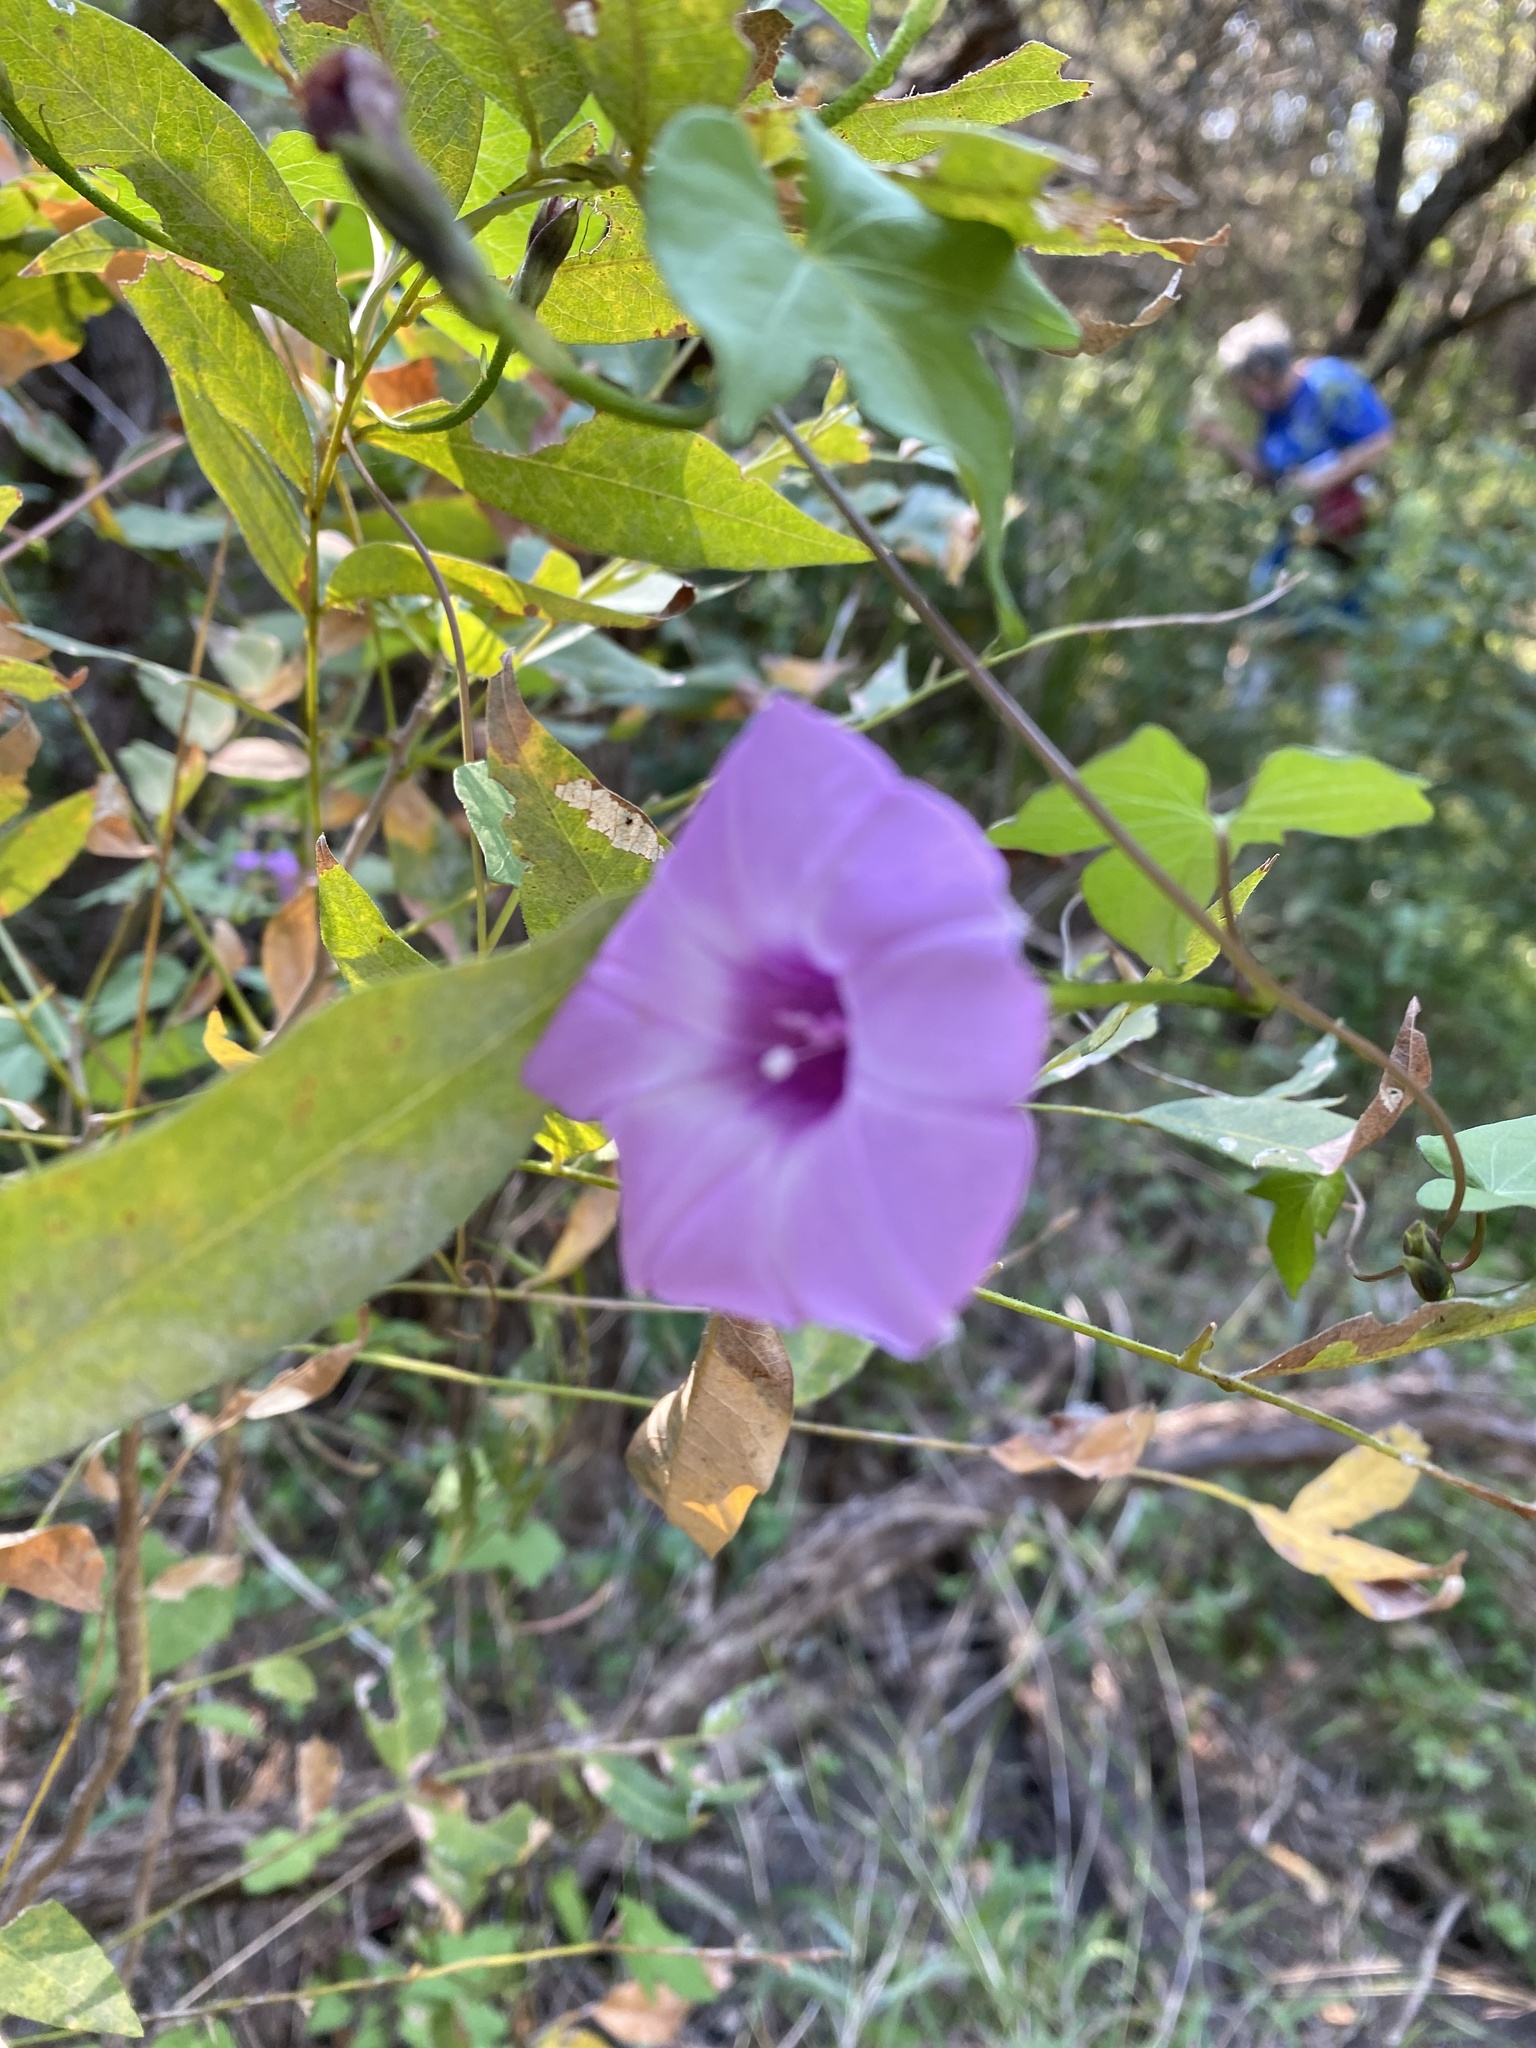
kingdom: Plantae
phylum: Tracheophyta
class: Magnoliopsida
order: Solanales
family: Convolvulaceae
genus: Ipomoea
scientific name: Ipomoea cordatotriloba
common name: Cotton morning glory
